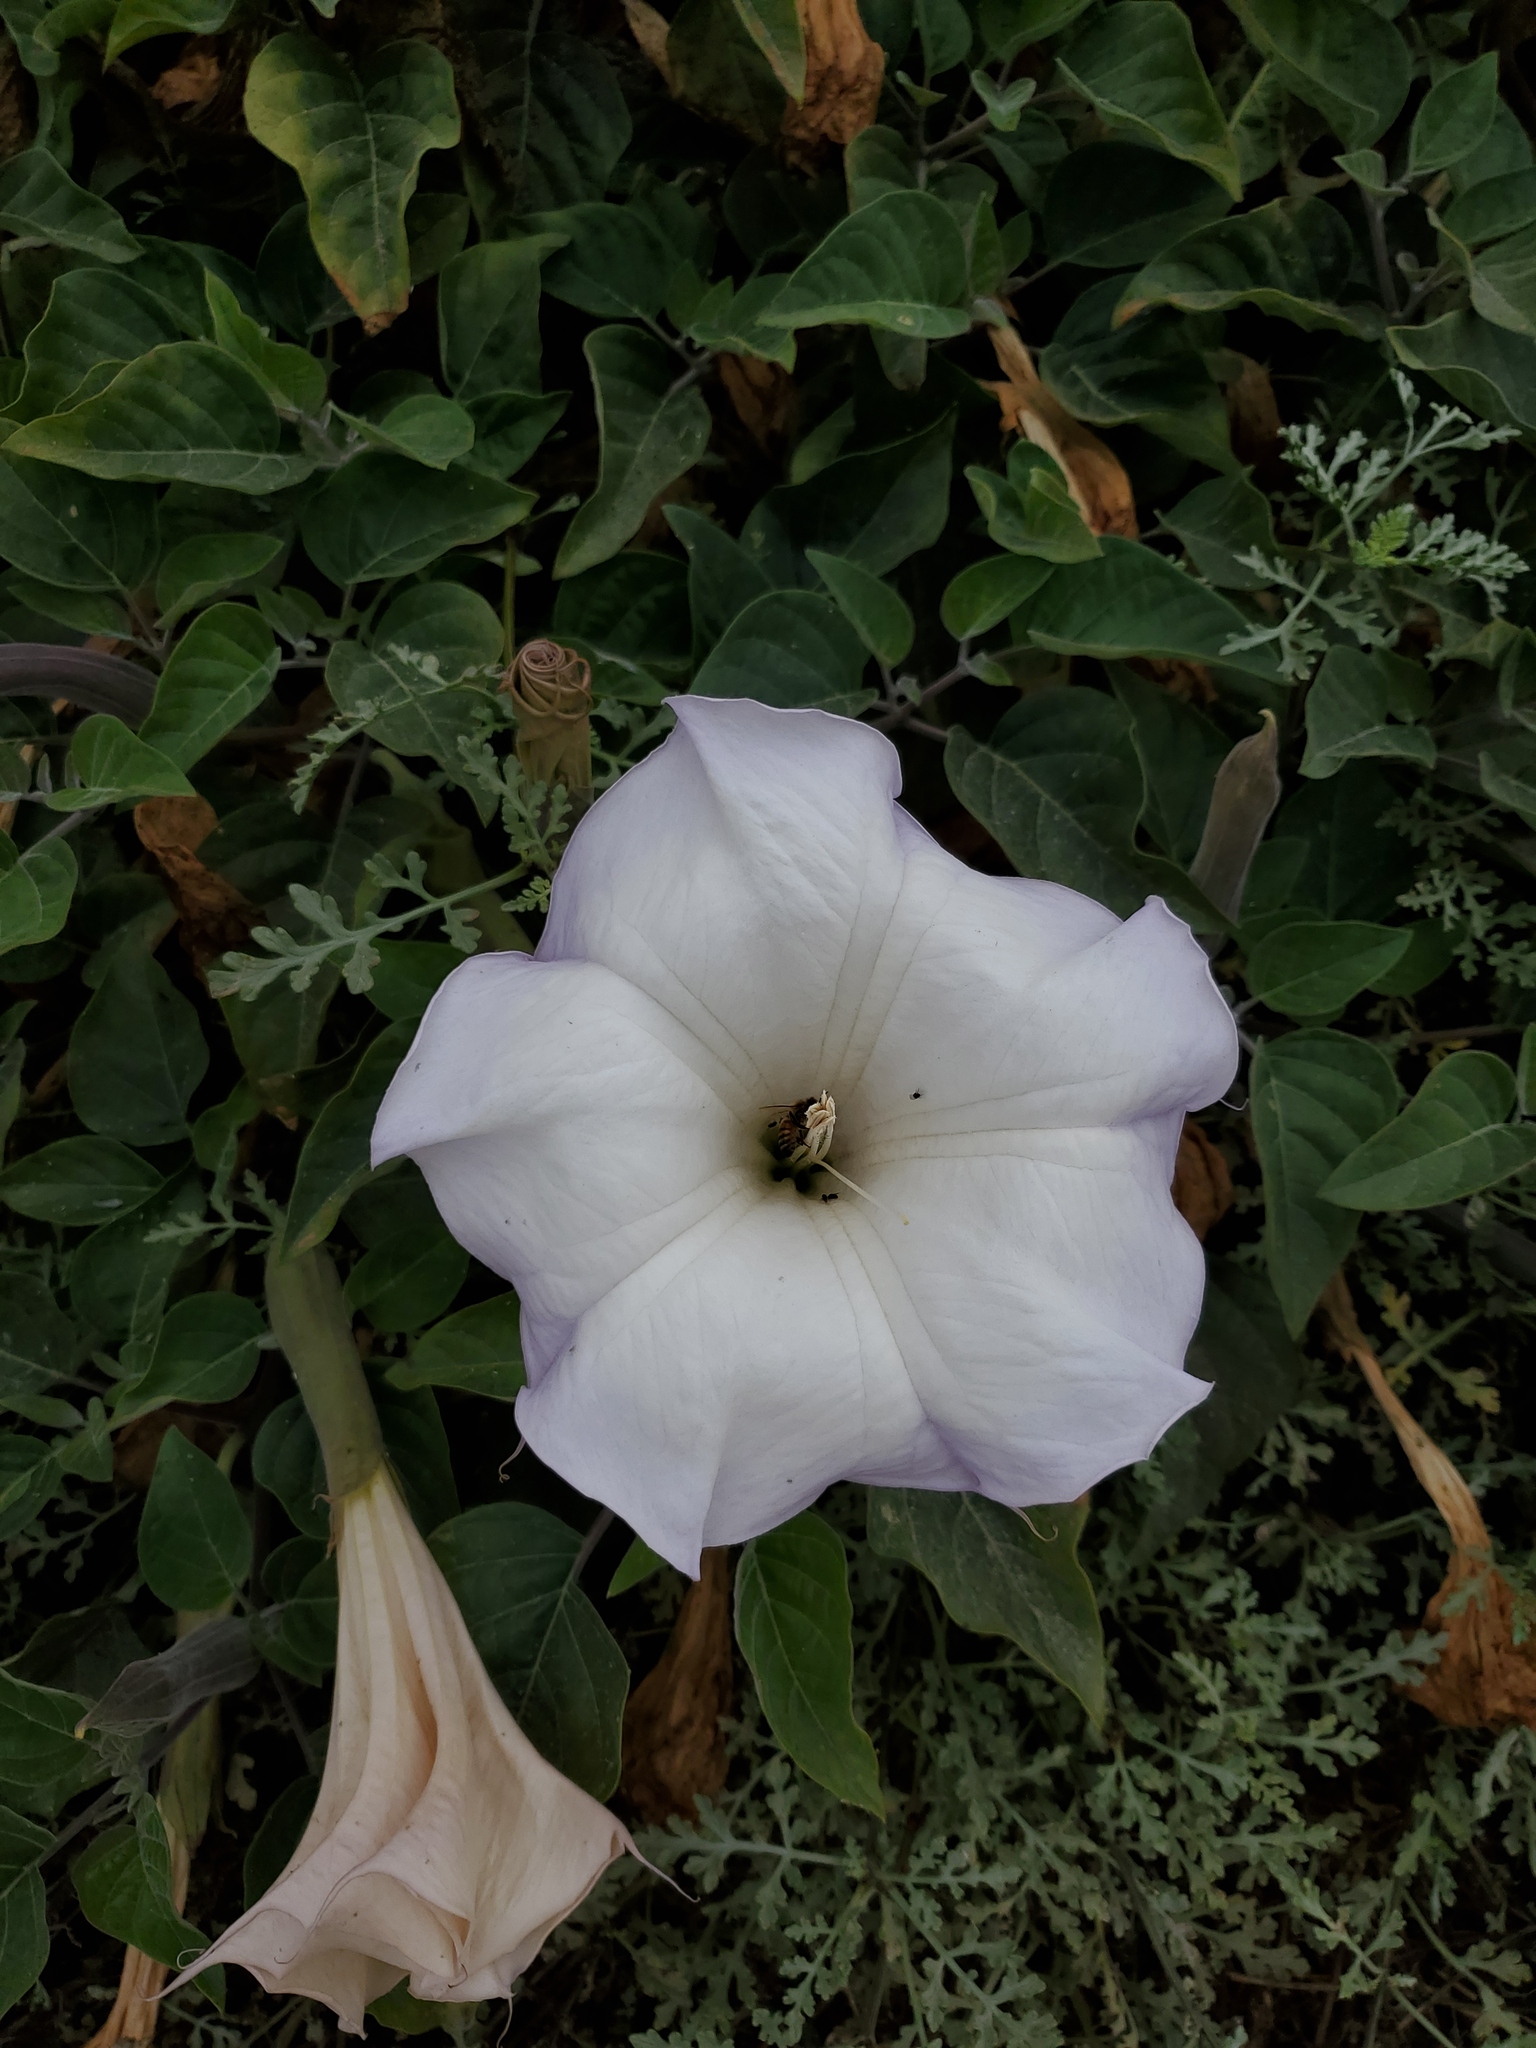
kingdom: Plantae
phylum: Tracheophyta
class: Magnoliopsida
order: Solanales
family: Solanaceae
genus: Datura
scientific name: Datura wrightii
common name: Sacred thorn-apple
